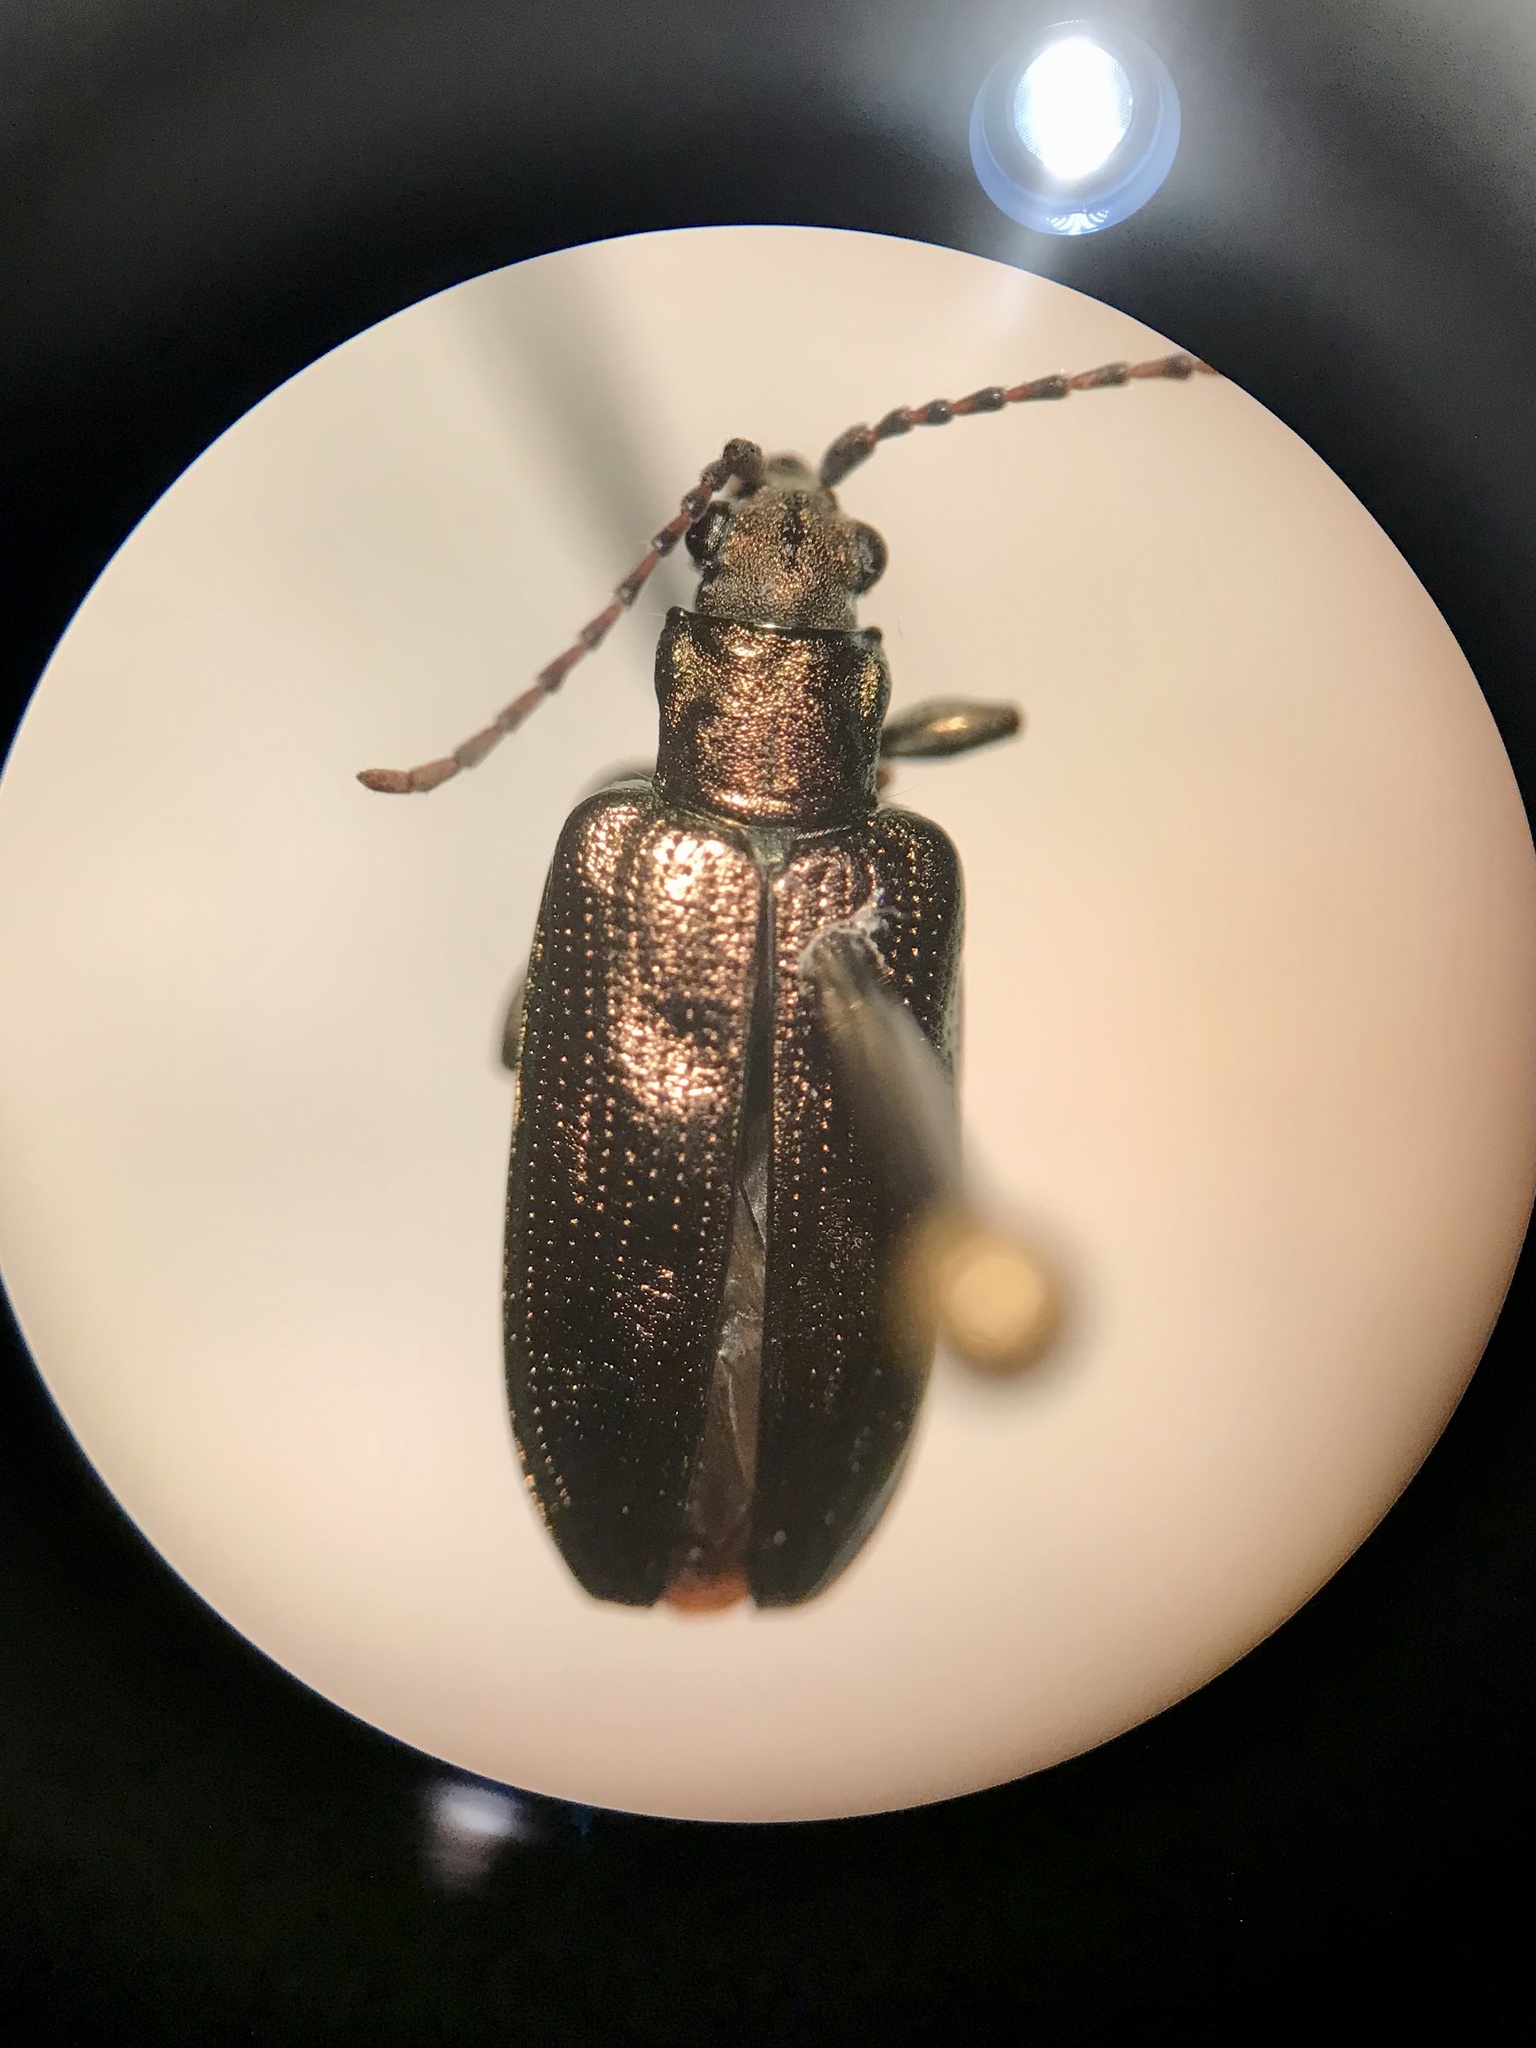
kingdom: Animalia
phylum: Arthropoda
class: Insecta
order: Coleoptera
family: Chrysomelidae
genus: Donacia
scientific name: Donacia caerulea
